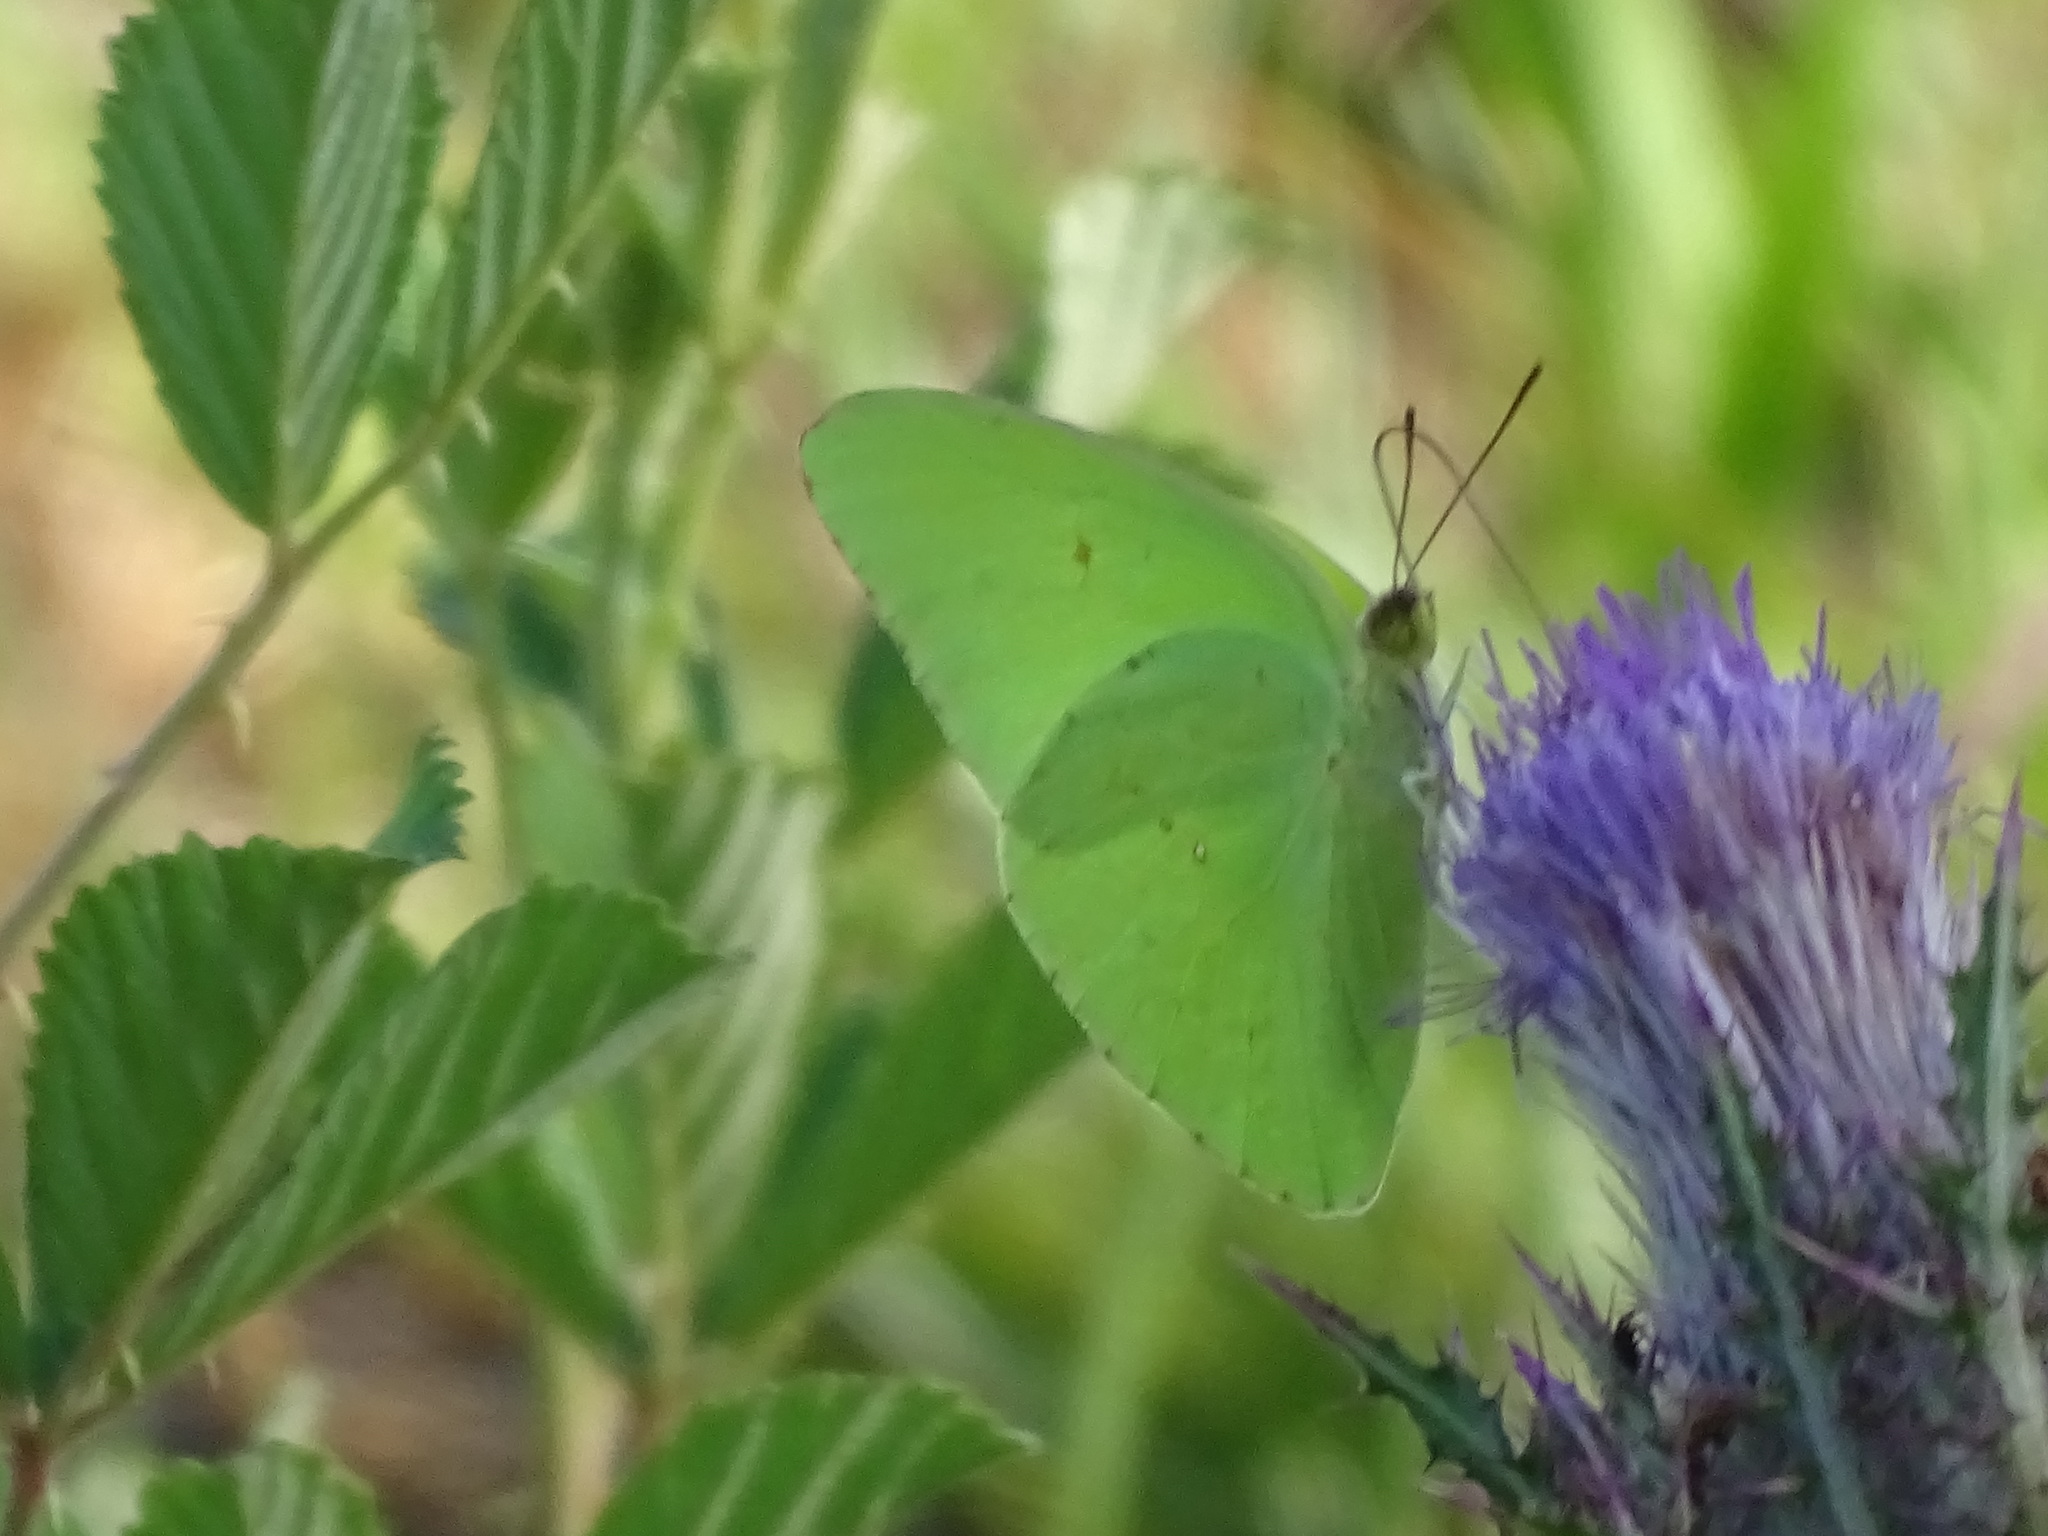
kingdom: Animalia
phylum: Arthropoda
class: Insecta
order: Lepidoptera
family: Pieridae
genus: Phoebis
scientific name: Phoebis sennae
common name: Cloudless sulphur
